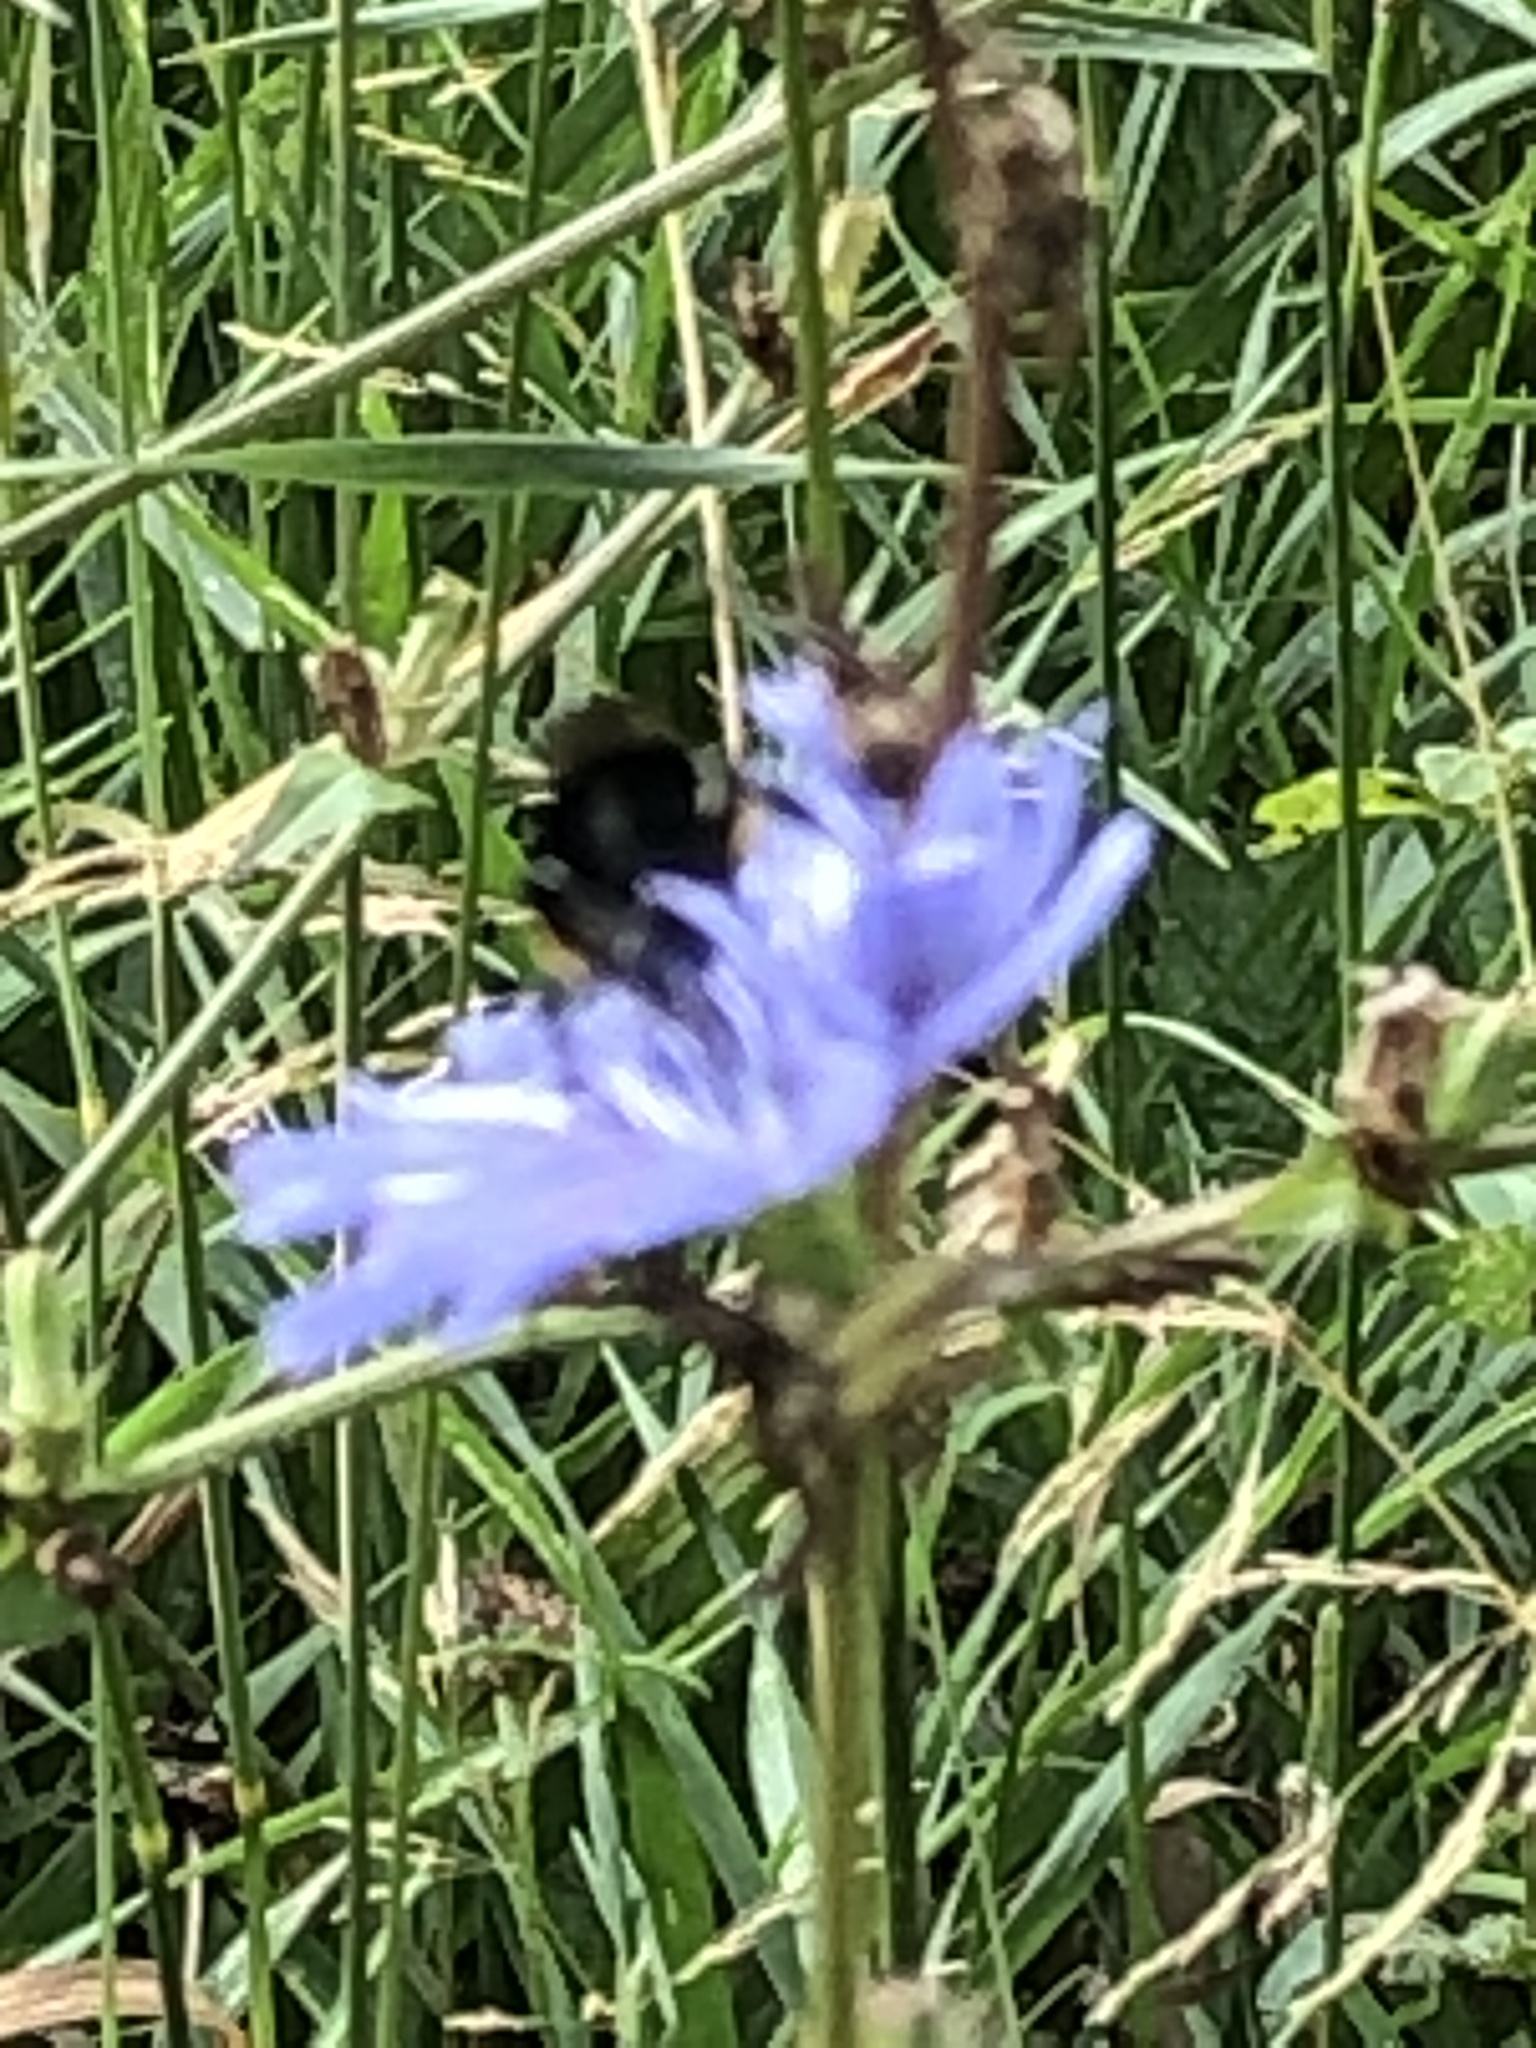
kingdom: Animalia
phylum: Arthropoda
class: Insecta
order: Hymenoptera
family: Apidae
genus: Bombus
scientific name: Bombus
